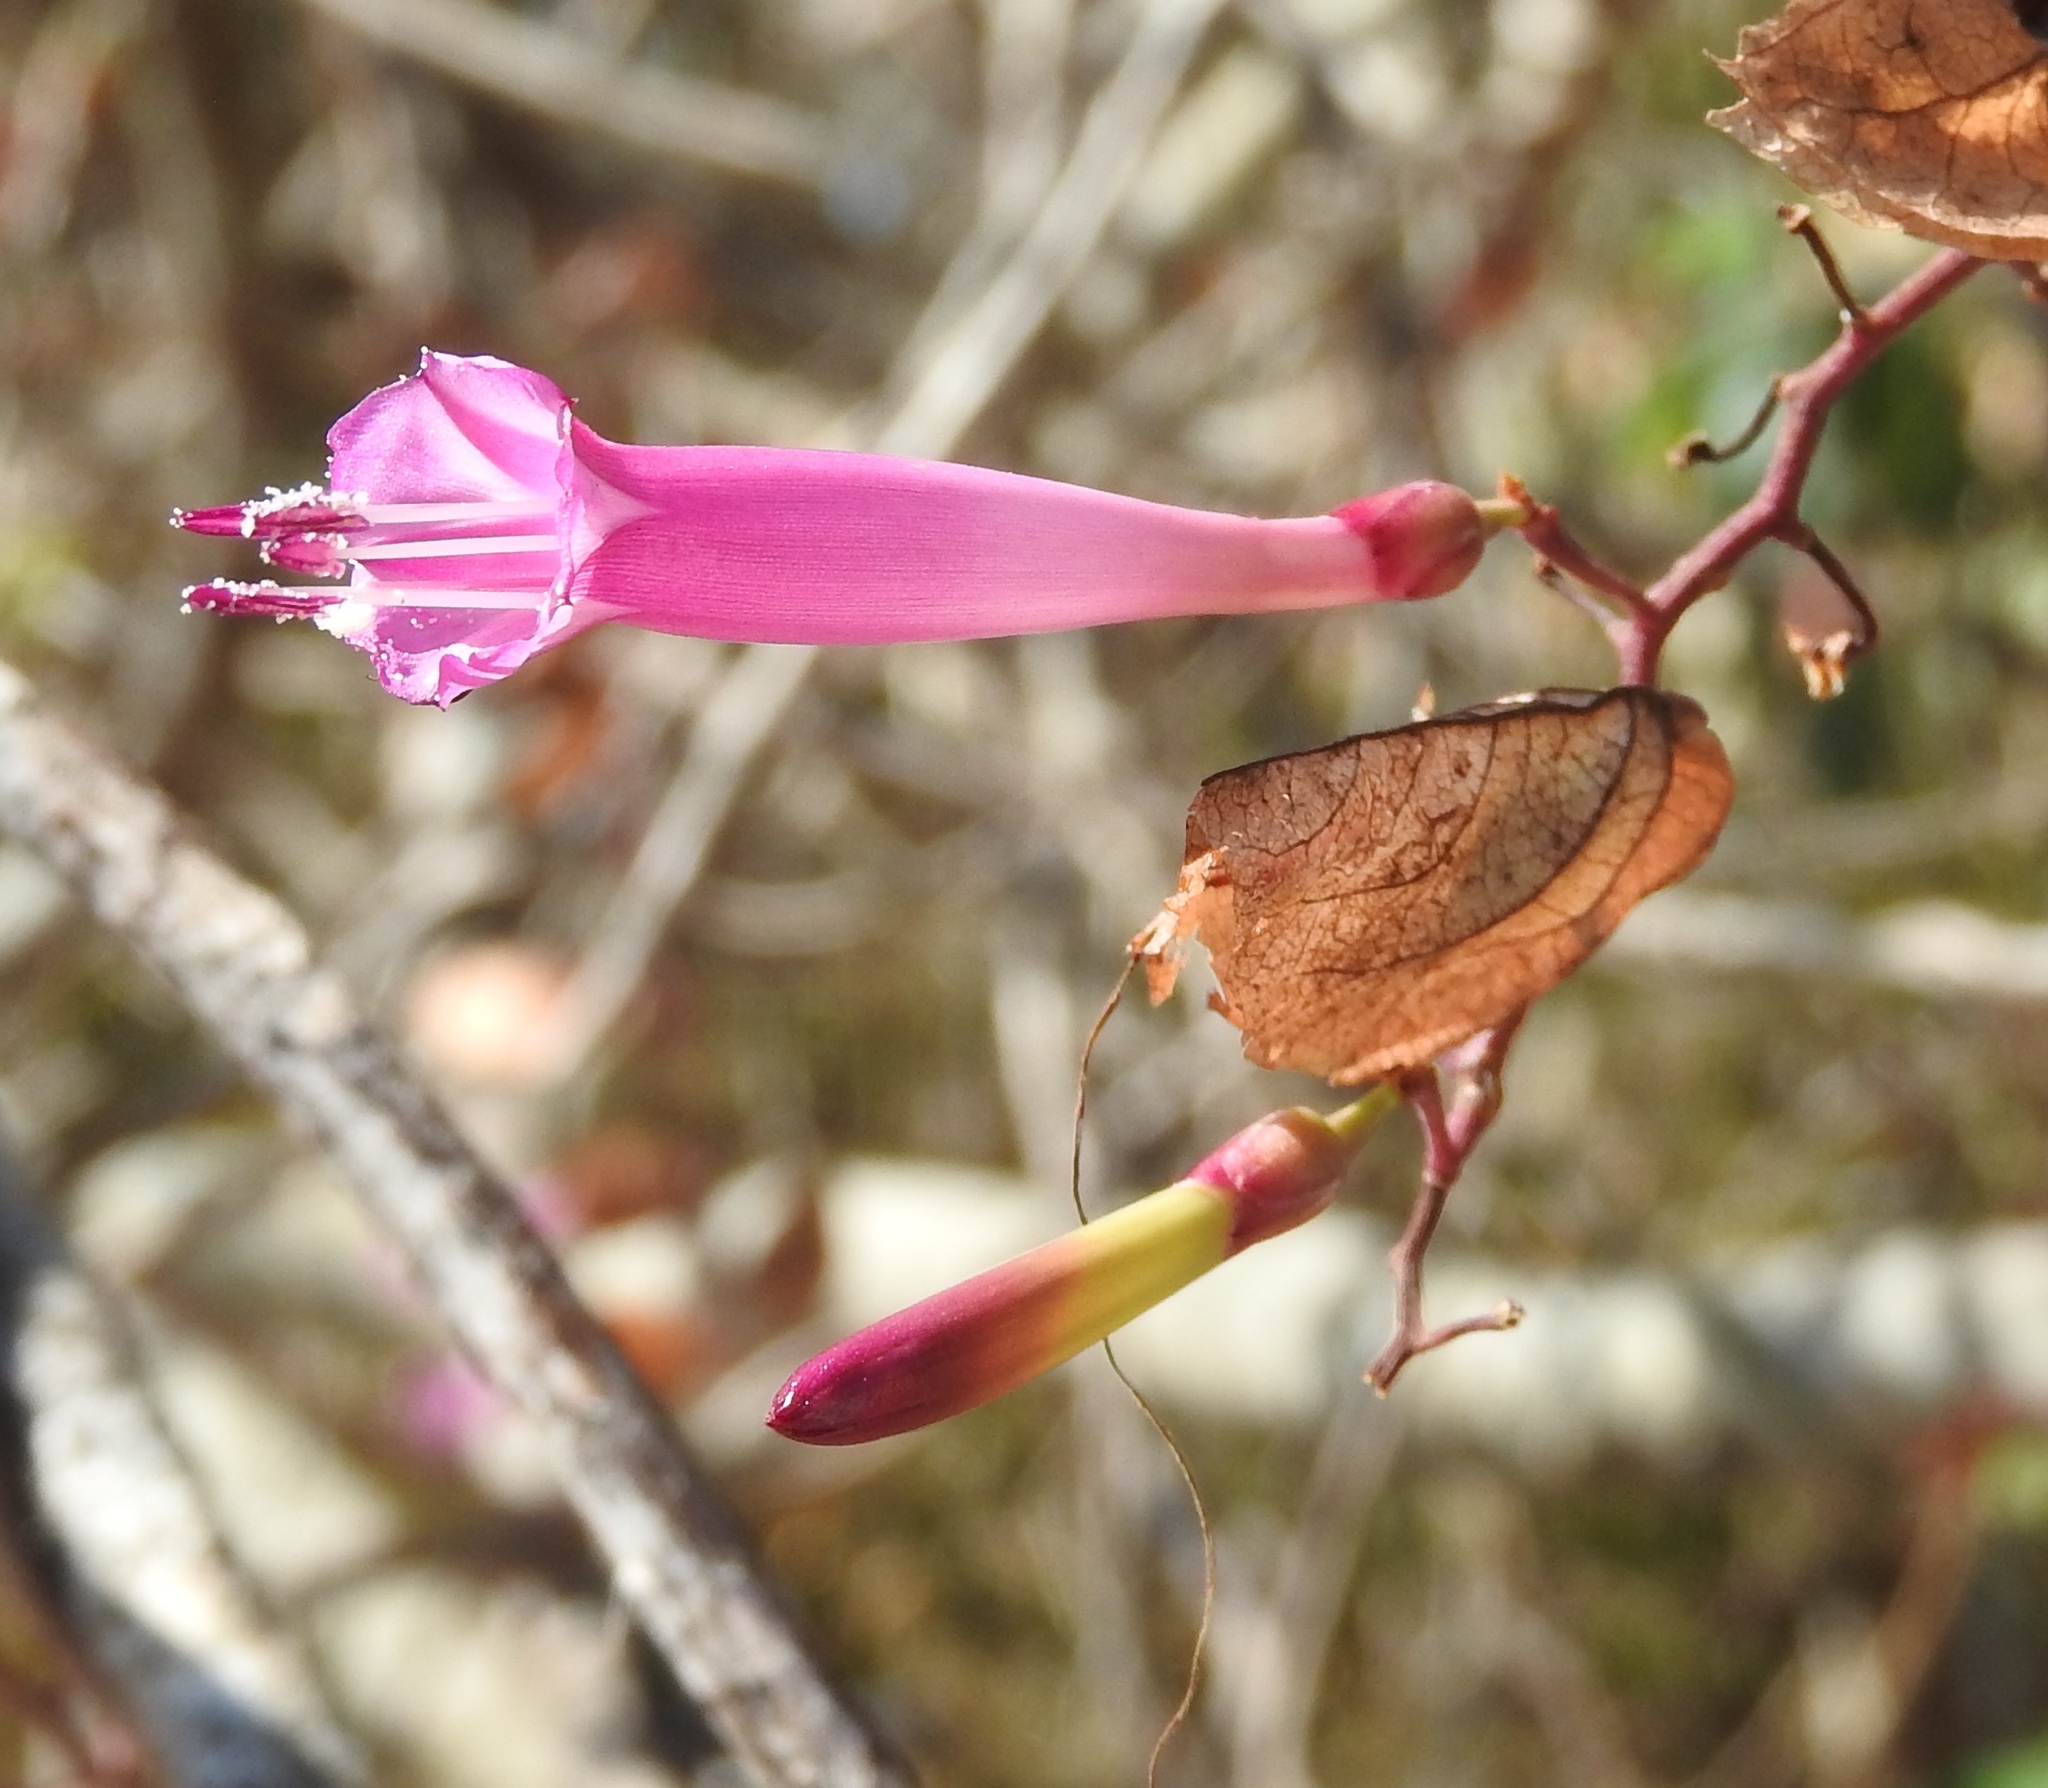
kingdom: Plantae
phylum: Tracheophyta
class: Magnoliopsida
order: Solanales
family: Convolvulaceae
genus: Ipomoea
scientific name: Ipomoea bracteata
